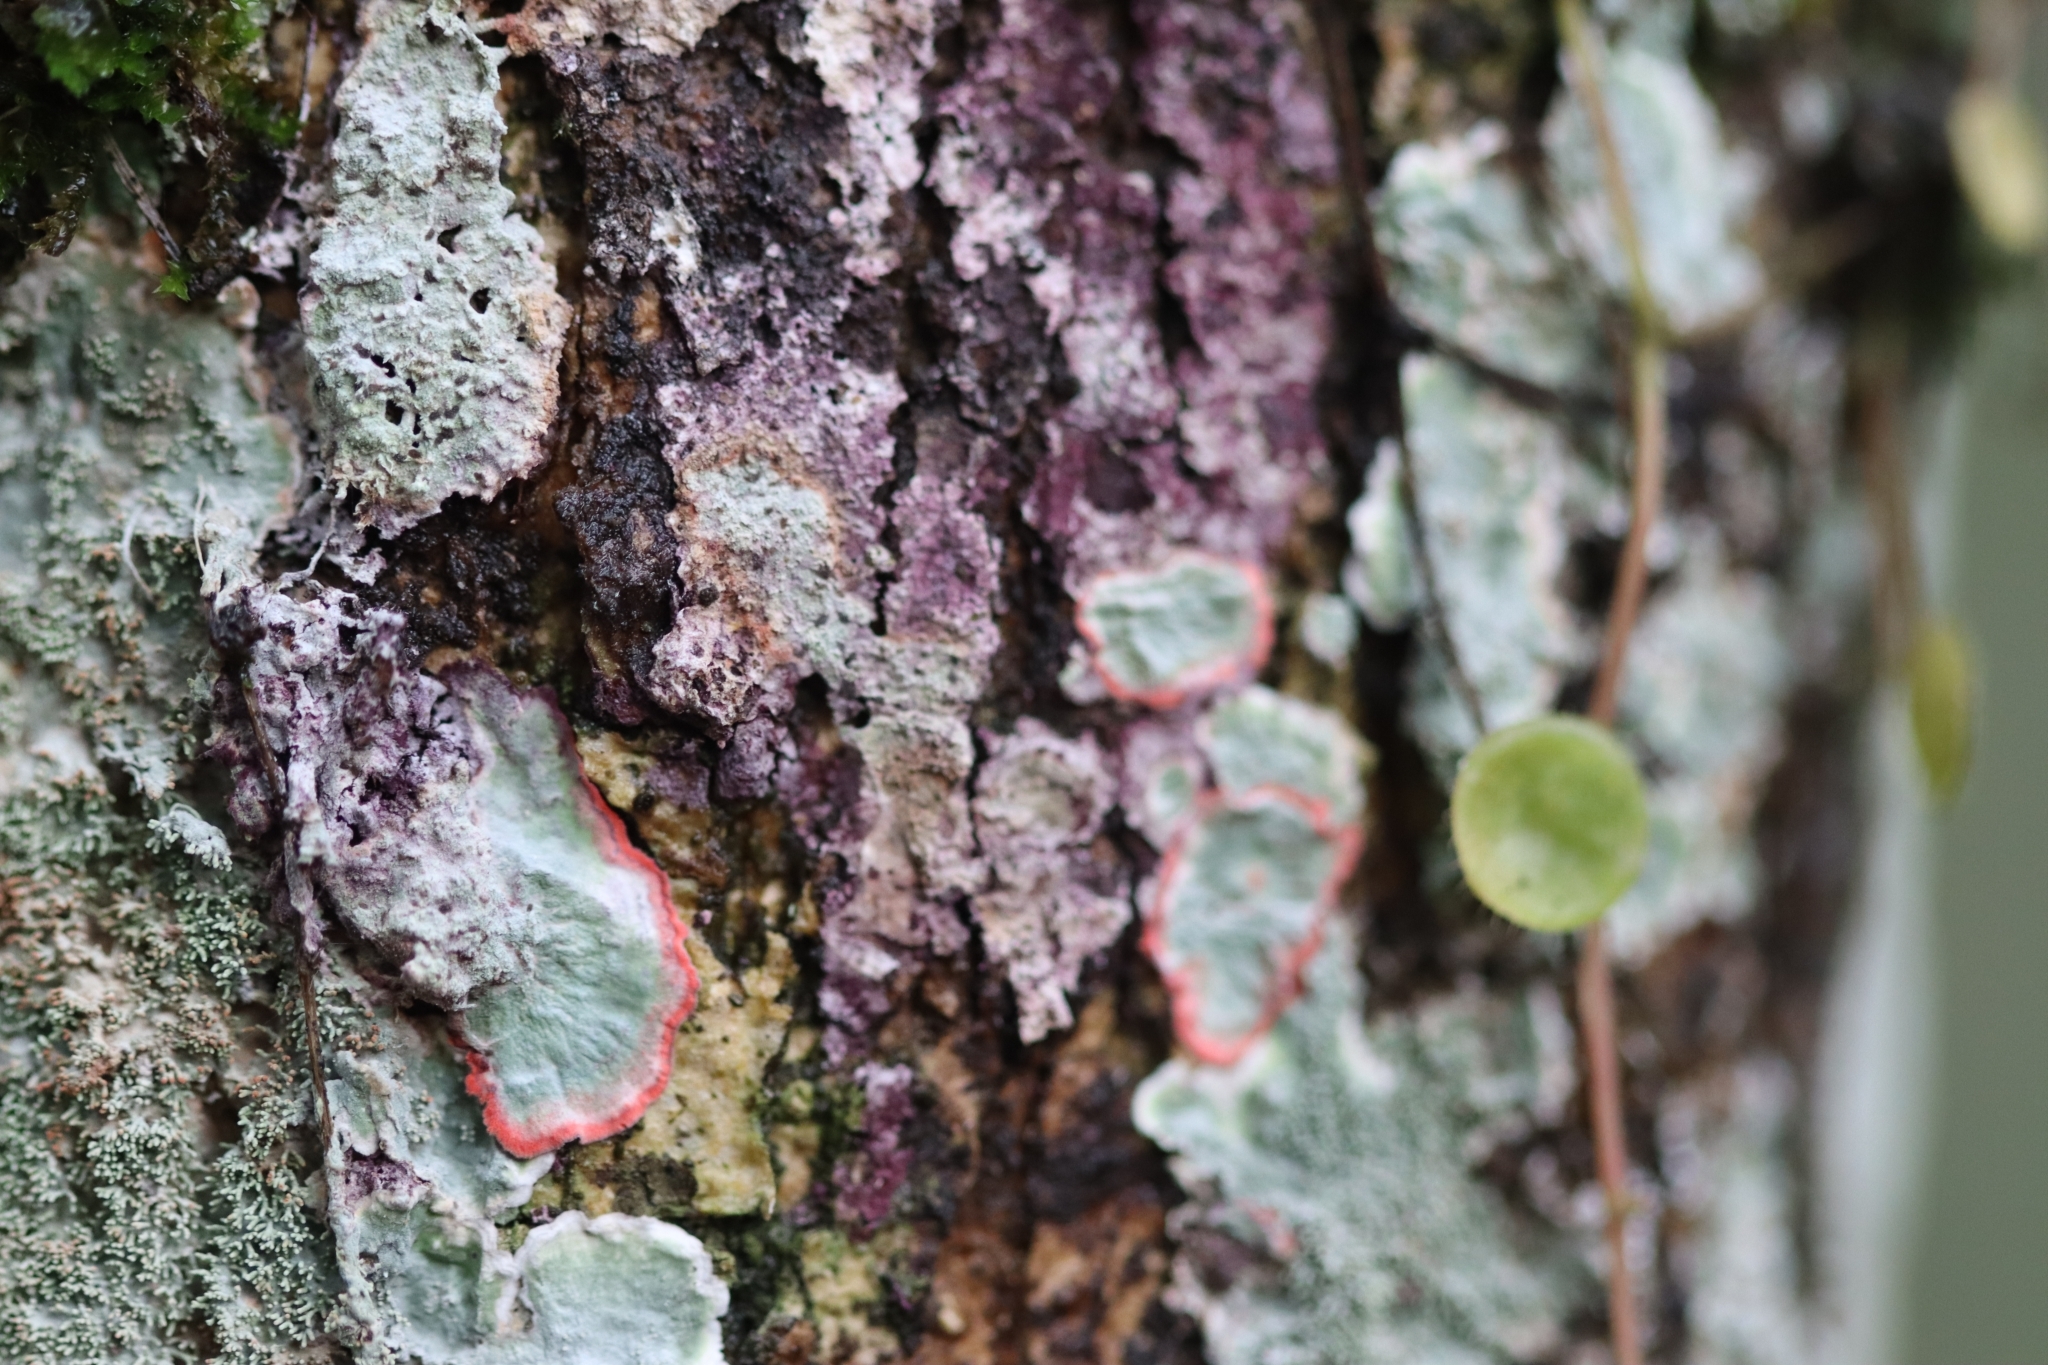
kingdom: Fungi
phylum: Ascomycota
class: Arthoniomycetes
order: Arthoniales
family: Arthoniaceae
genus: Herpothallon
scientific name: Herpothallon rubrocinctum
